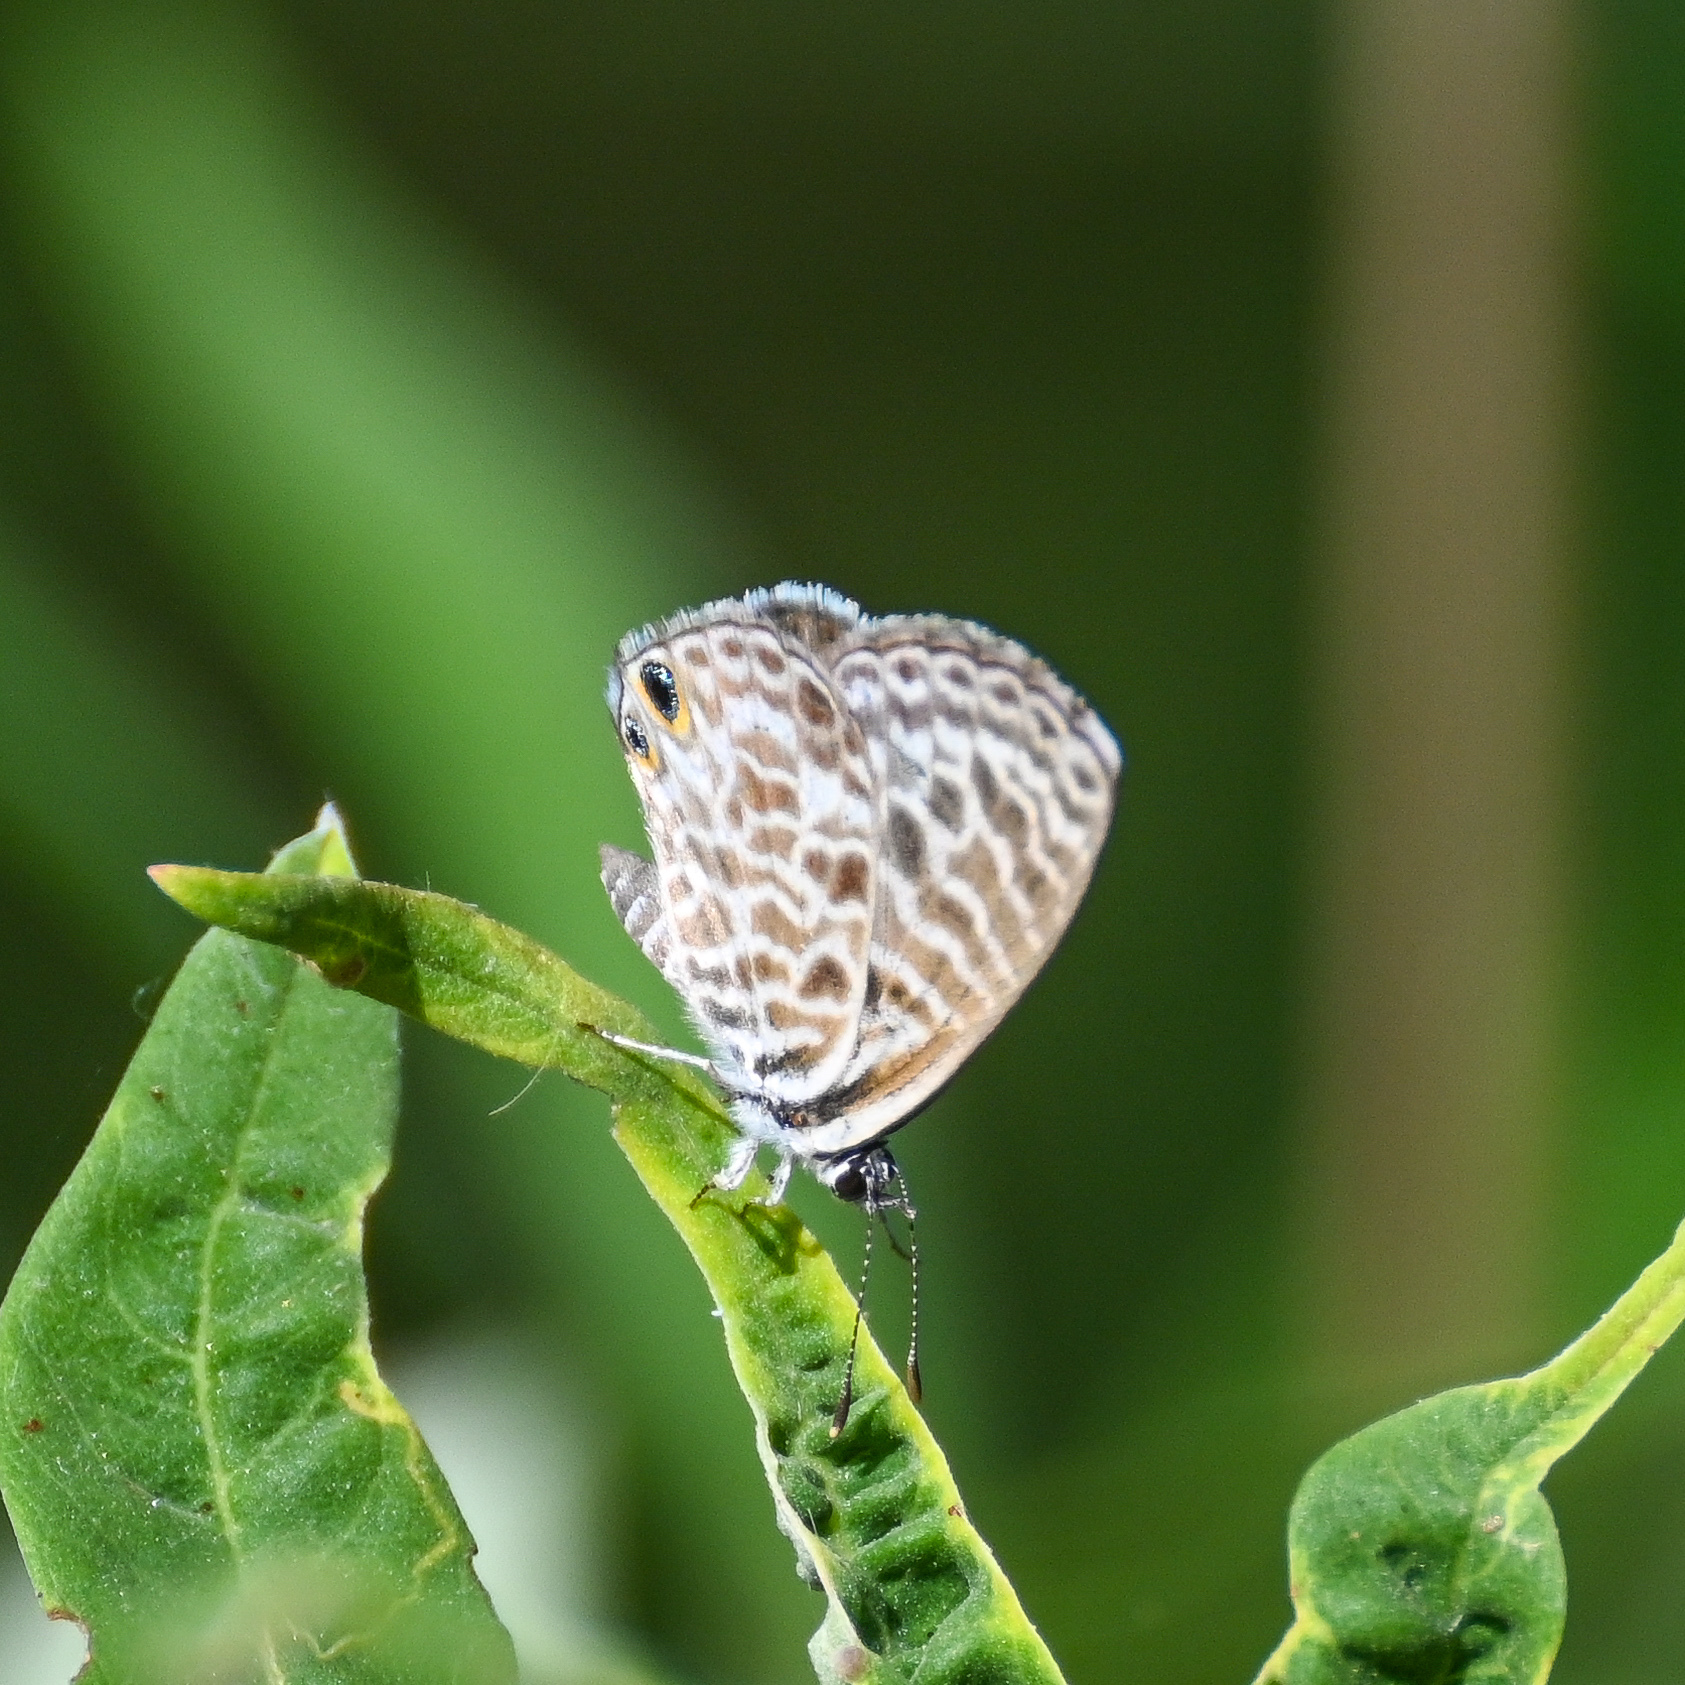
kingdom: Animalia
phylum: Arthropoda
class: Insecta
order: Lepidoptera
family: Lycaenidae
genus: Leptotes
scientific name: Leptotes pirithous
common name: Lang's short-tailed blue
